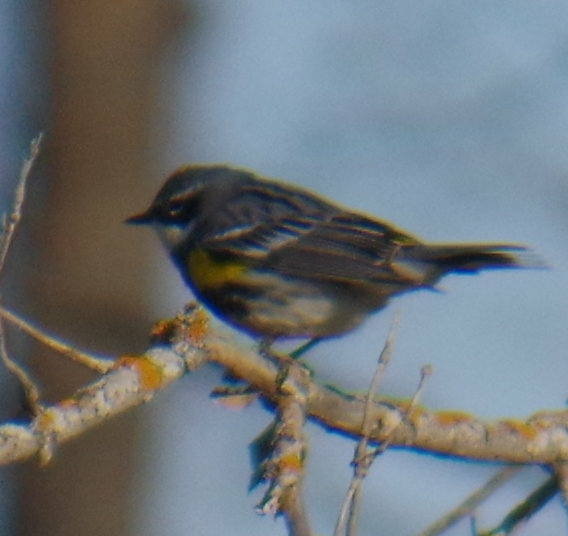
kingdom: Animalia
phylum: Chordata
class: Aves
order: Passeriformes
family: Parulidae
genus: Setophaga
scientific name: Setophaga coronata
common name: Myrtle warbler
